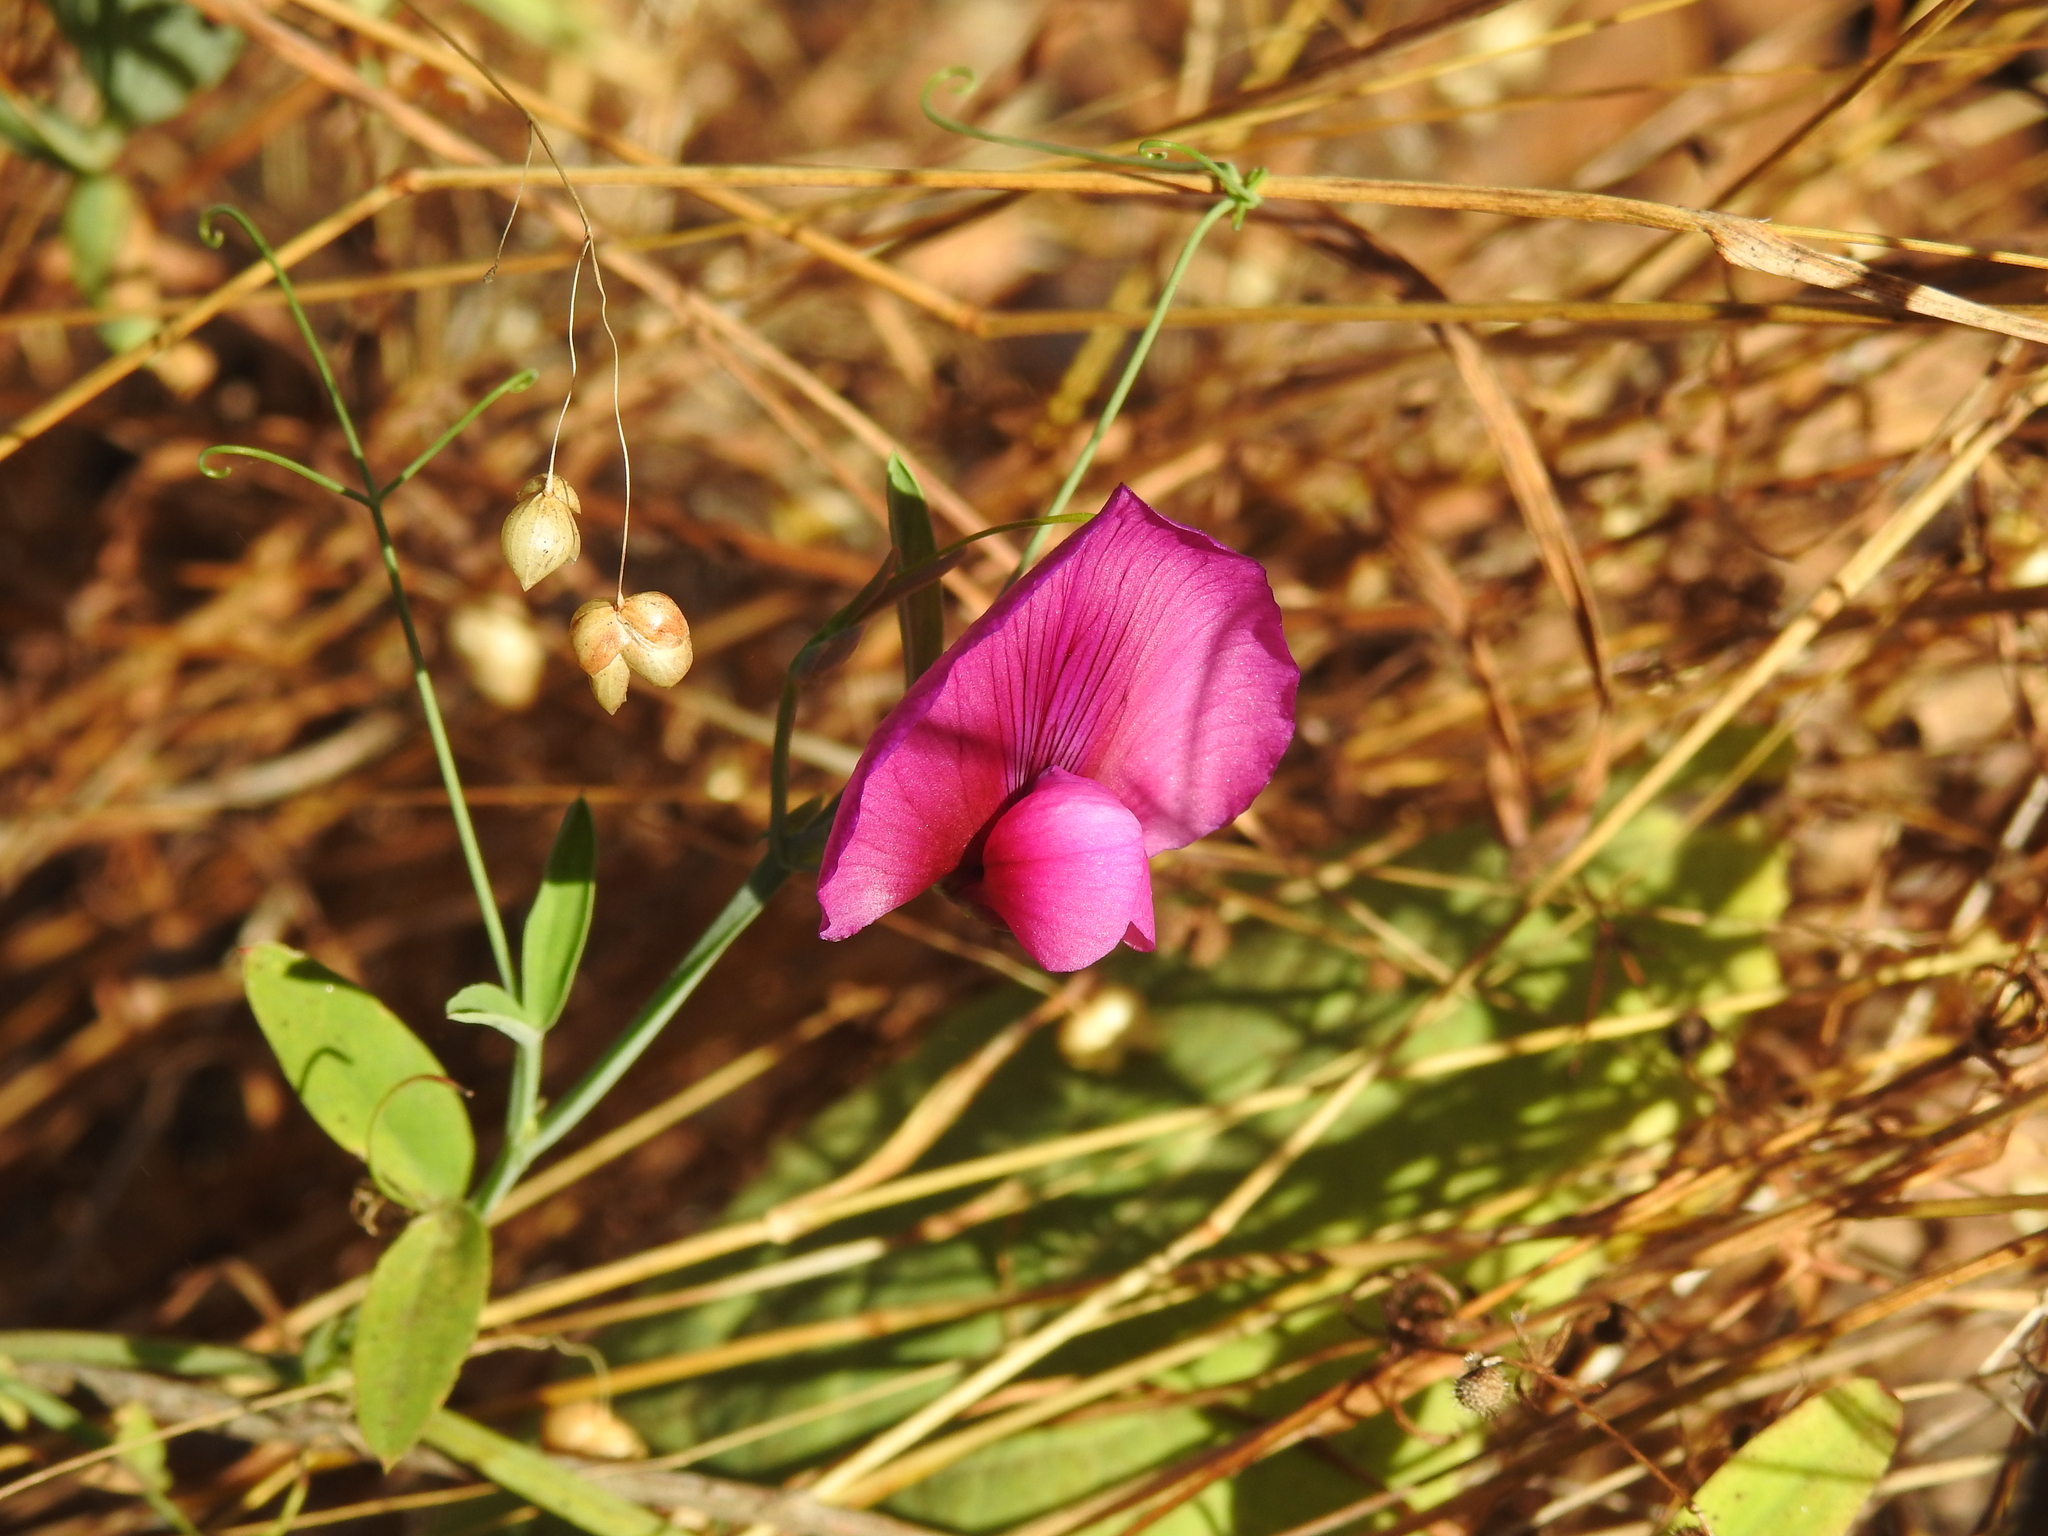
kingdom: Plantae
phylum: Tracheophyta
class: Magnoliopsida
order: Fabales
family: Fabaceae
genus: Lathyrus
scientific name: Lathyrus tingitanus
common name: Tangier pea
